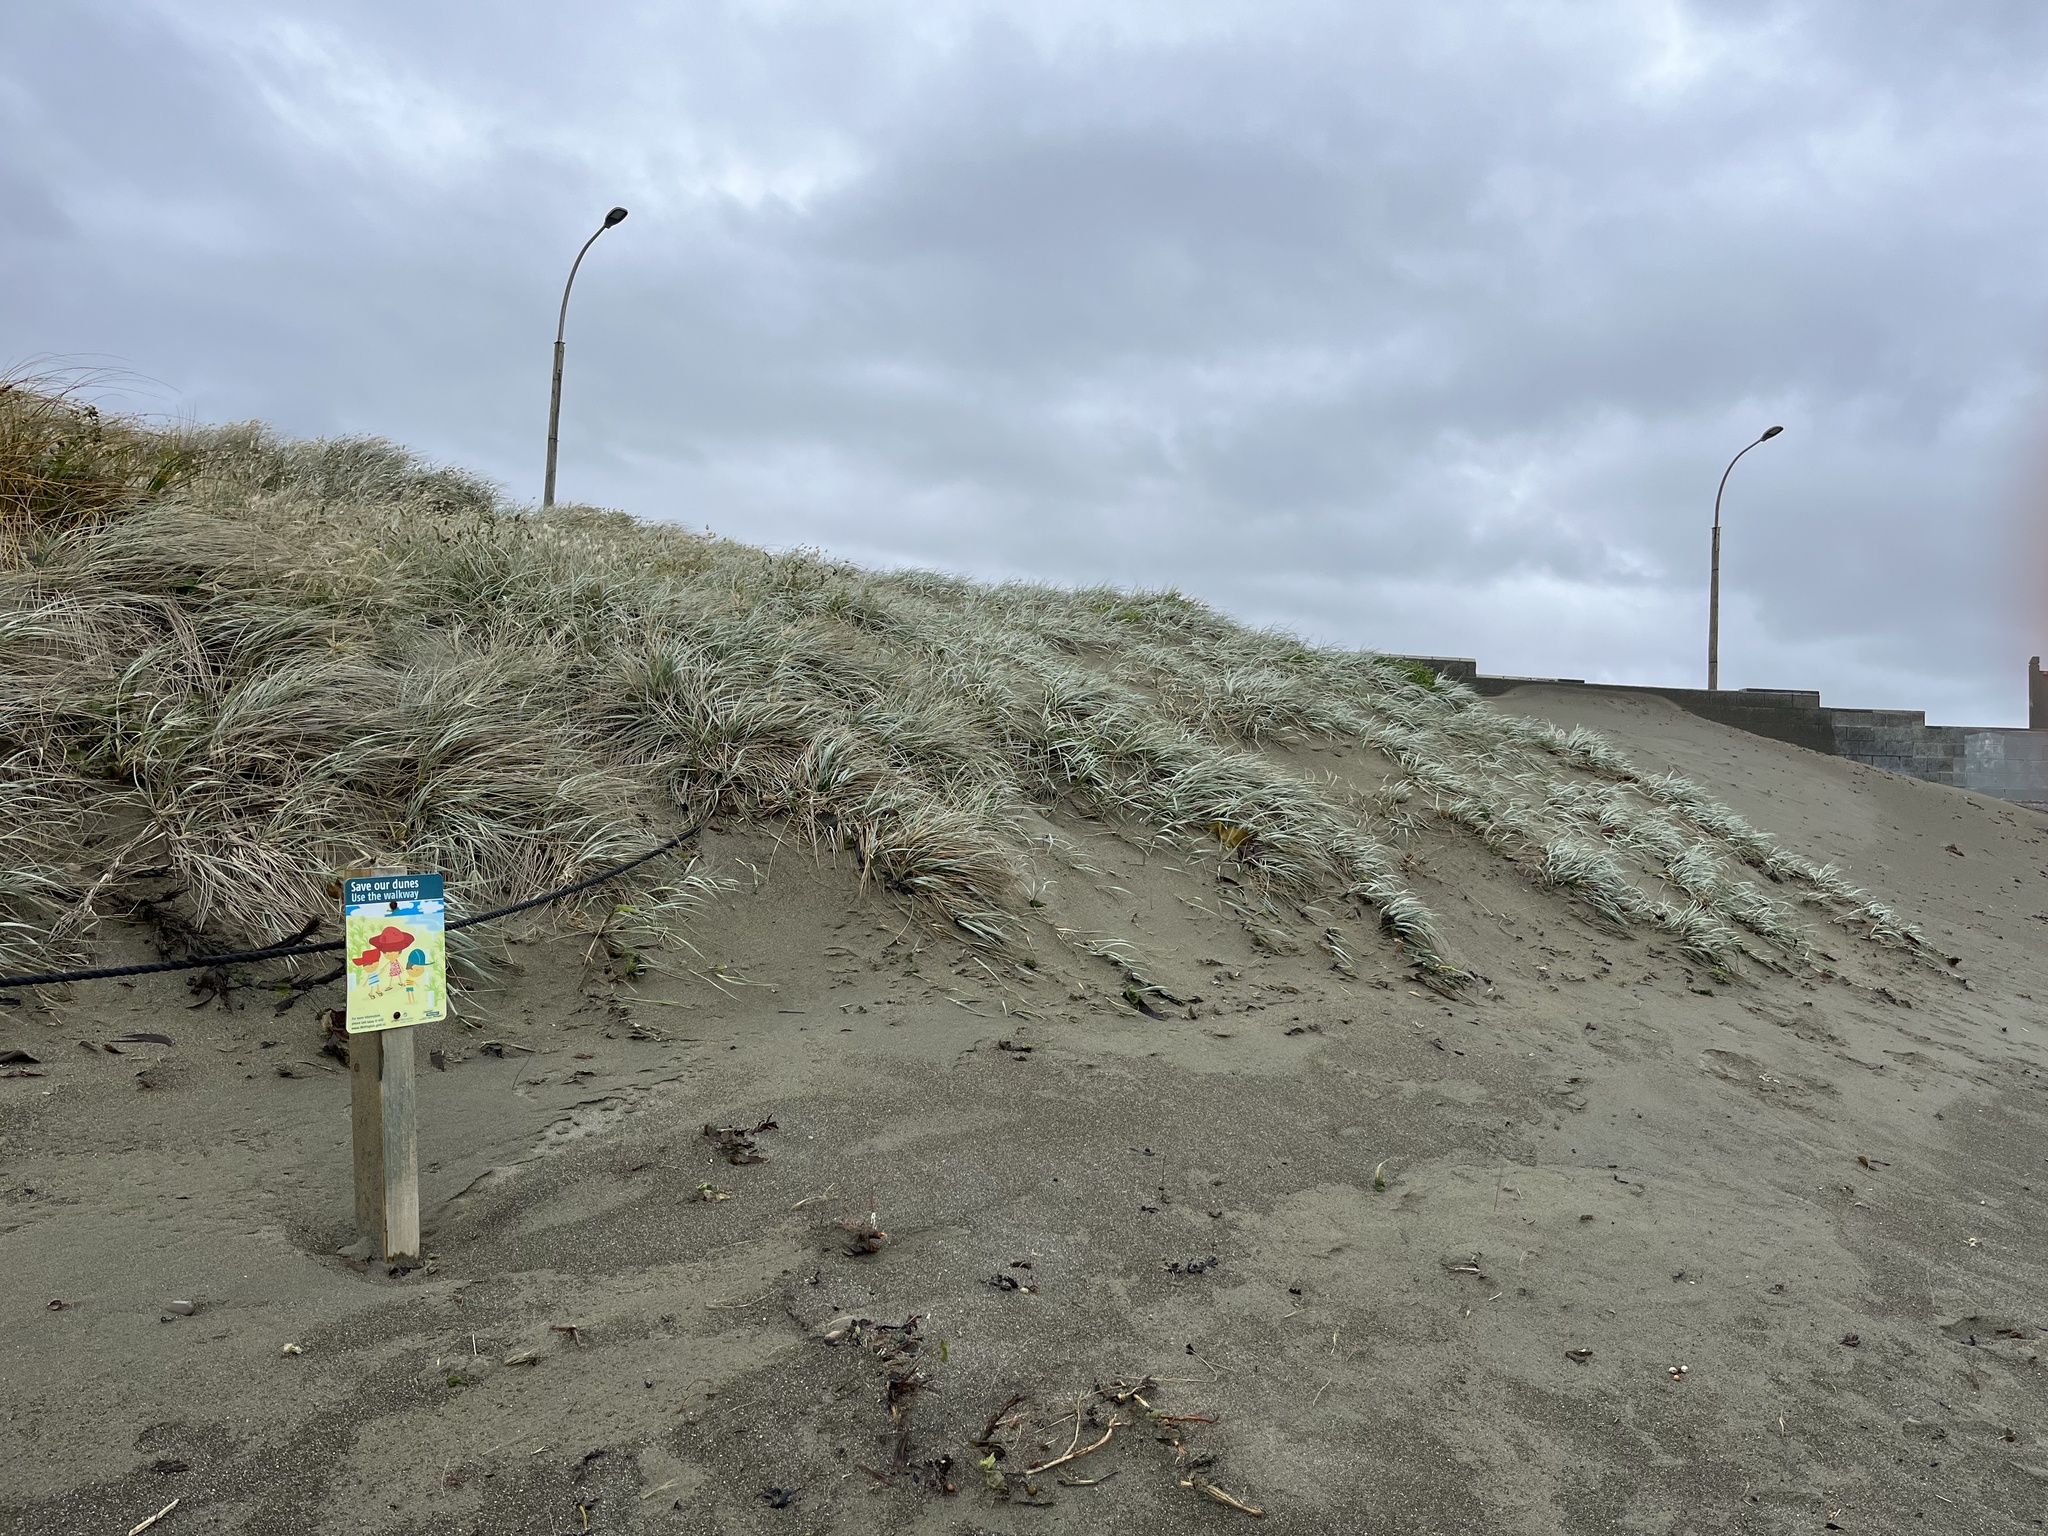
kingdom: Plantae
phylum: Tracheophyta
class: Liliopsida
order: Poales
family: Poaceae
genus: Spinifex
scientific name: Spinifex sericeus
